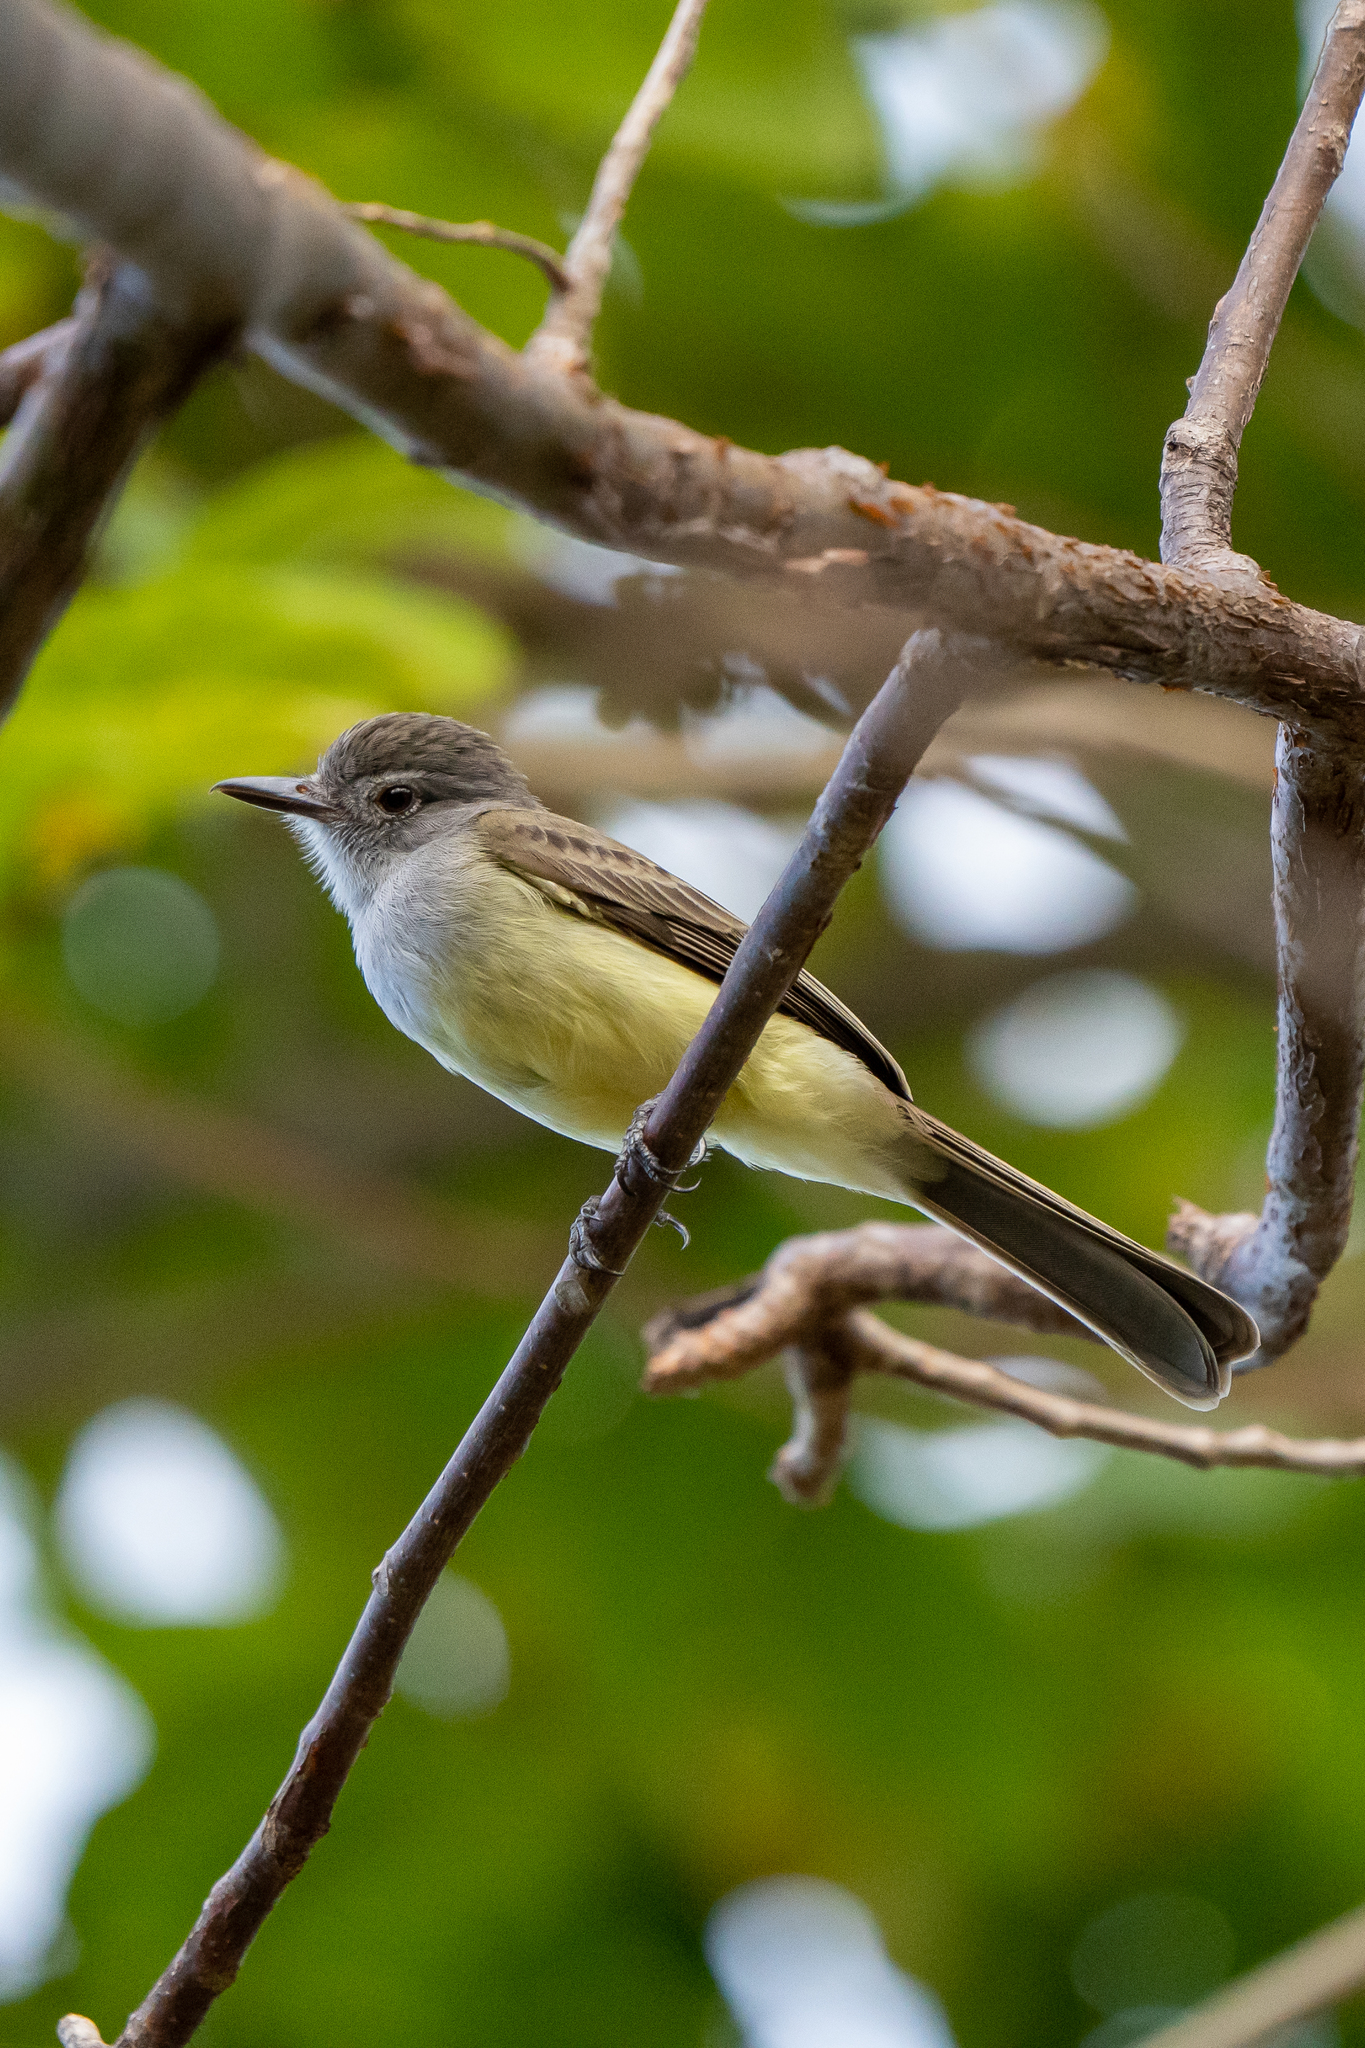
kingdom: Animalia
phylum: Chordata
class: Aves
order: Passeriformes
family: Tyrannidae
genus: Myiarchus
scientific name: Myiarchus panamensis
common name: Panama flycatcher
